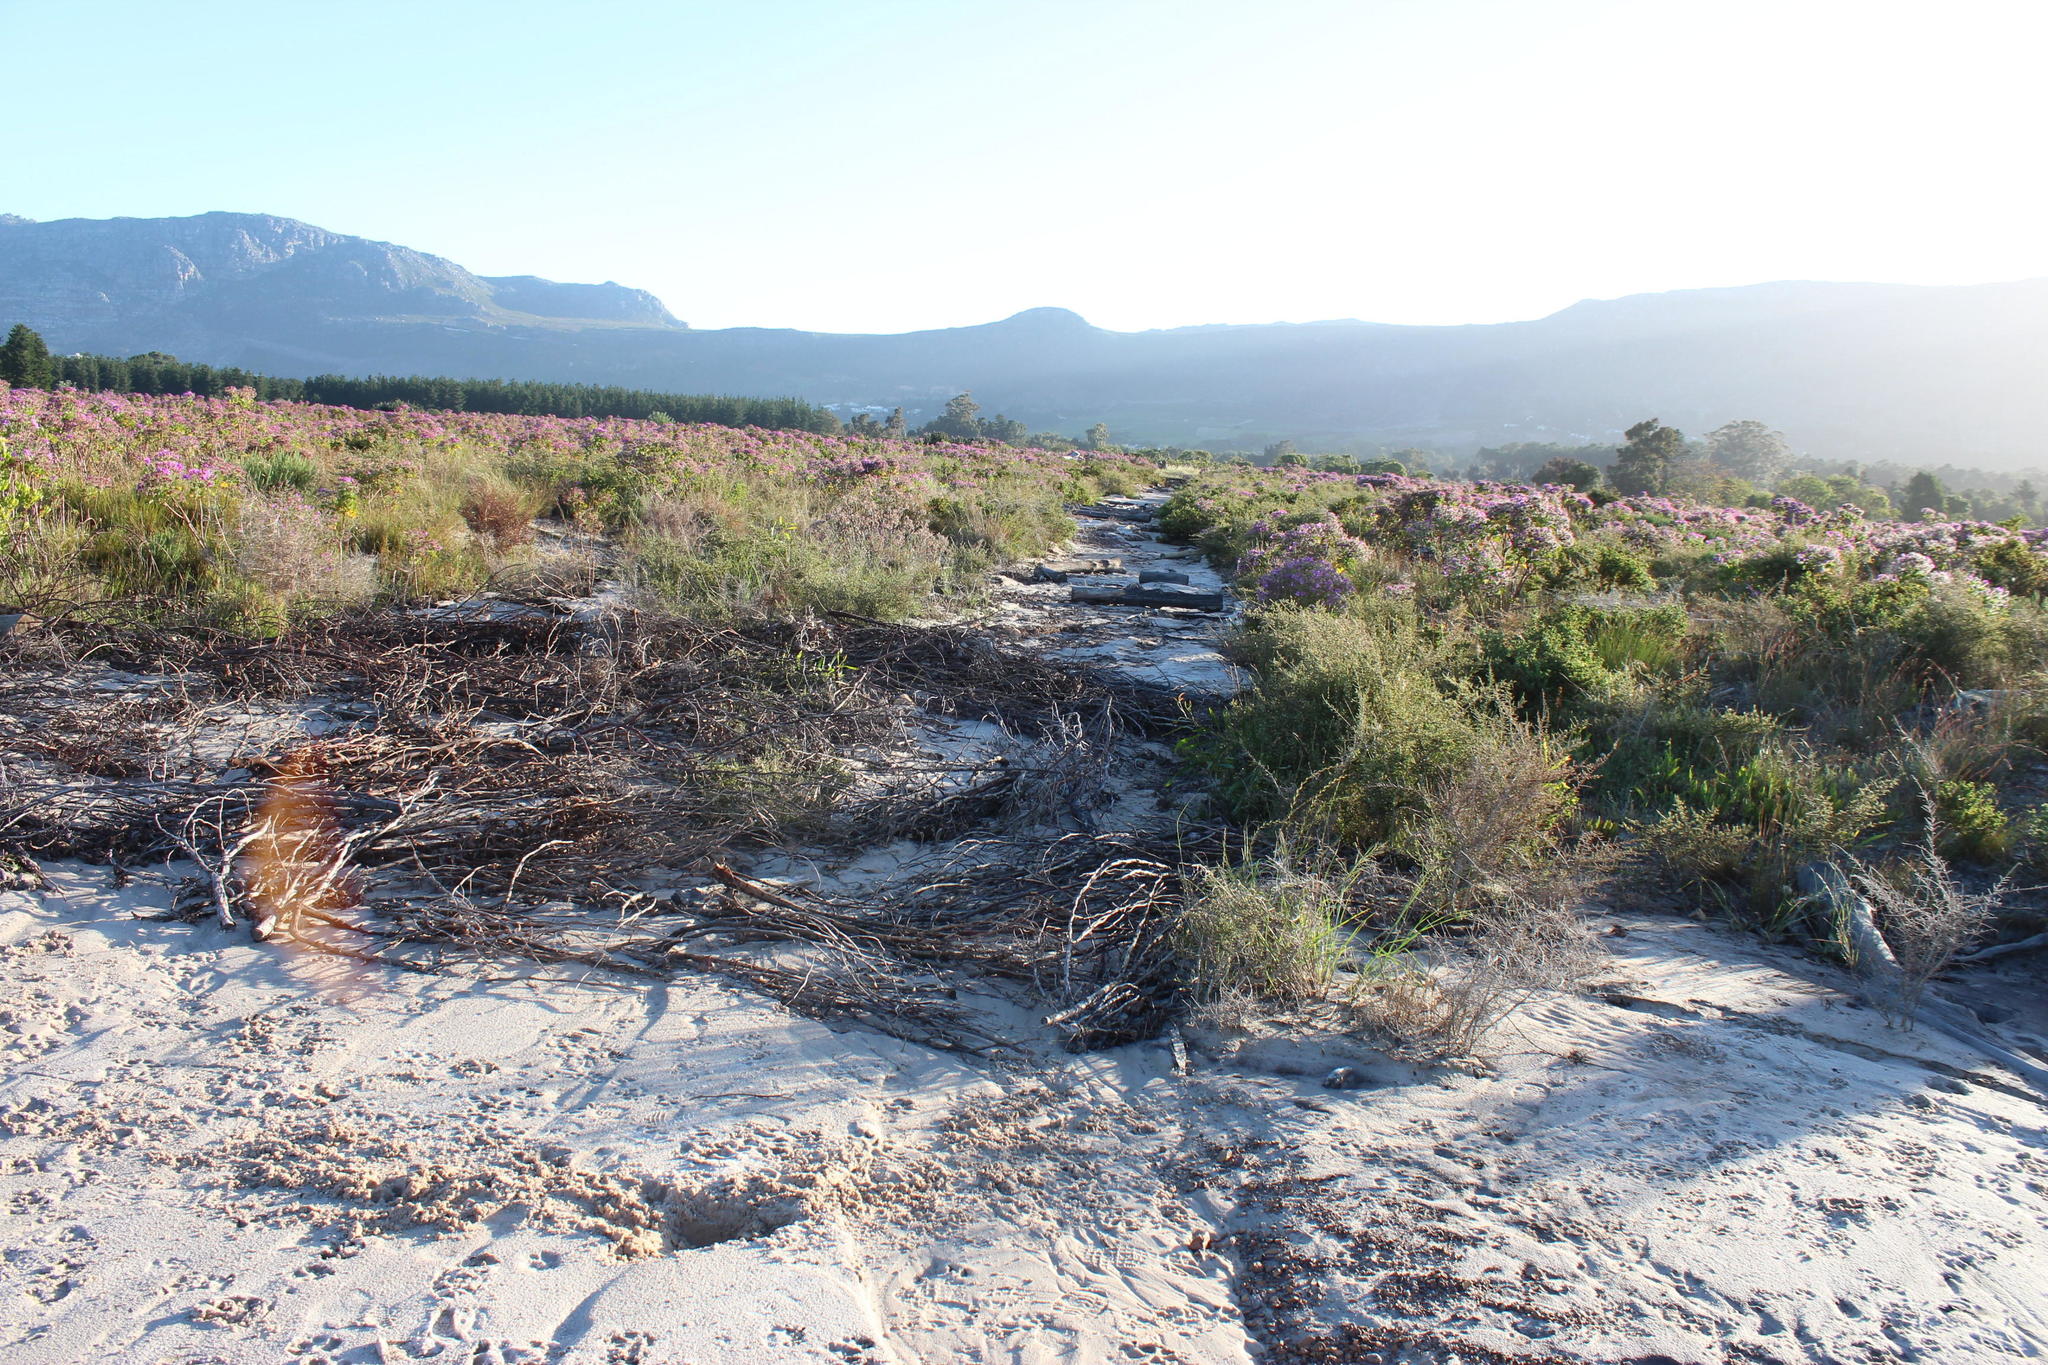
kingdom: Plantae
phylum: Tracheophyta
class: Magnoliopsida
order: Geraniales
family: Geraniaceae
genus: Pelargonium
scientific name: Pelargonium cucullatum
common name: Tree pelargonium
